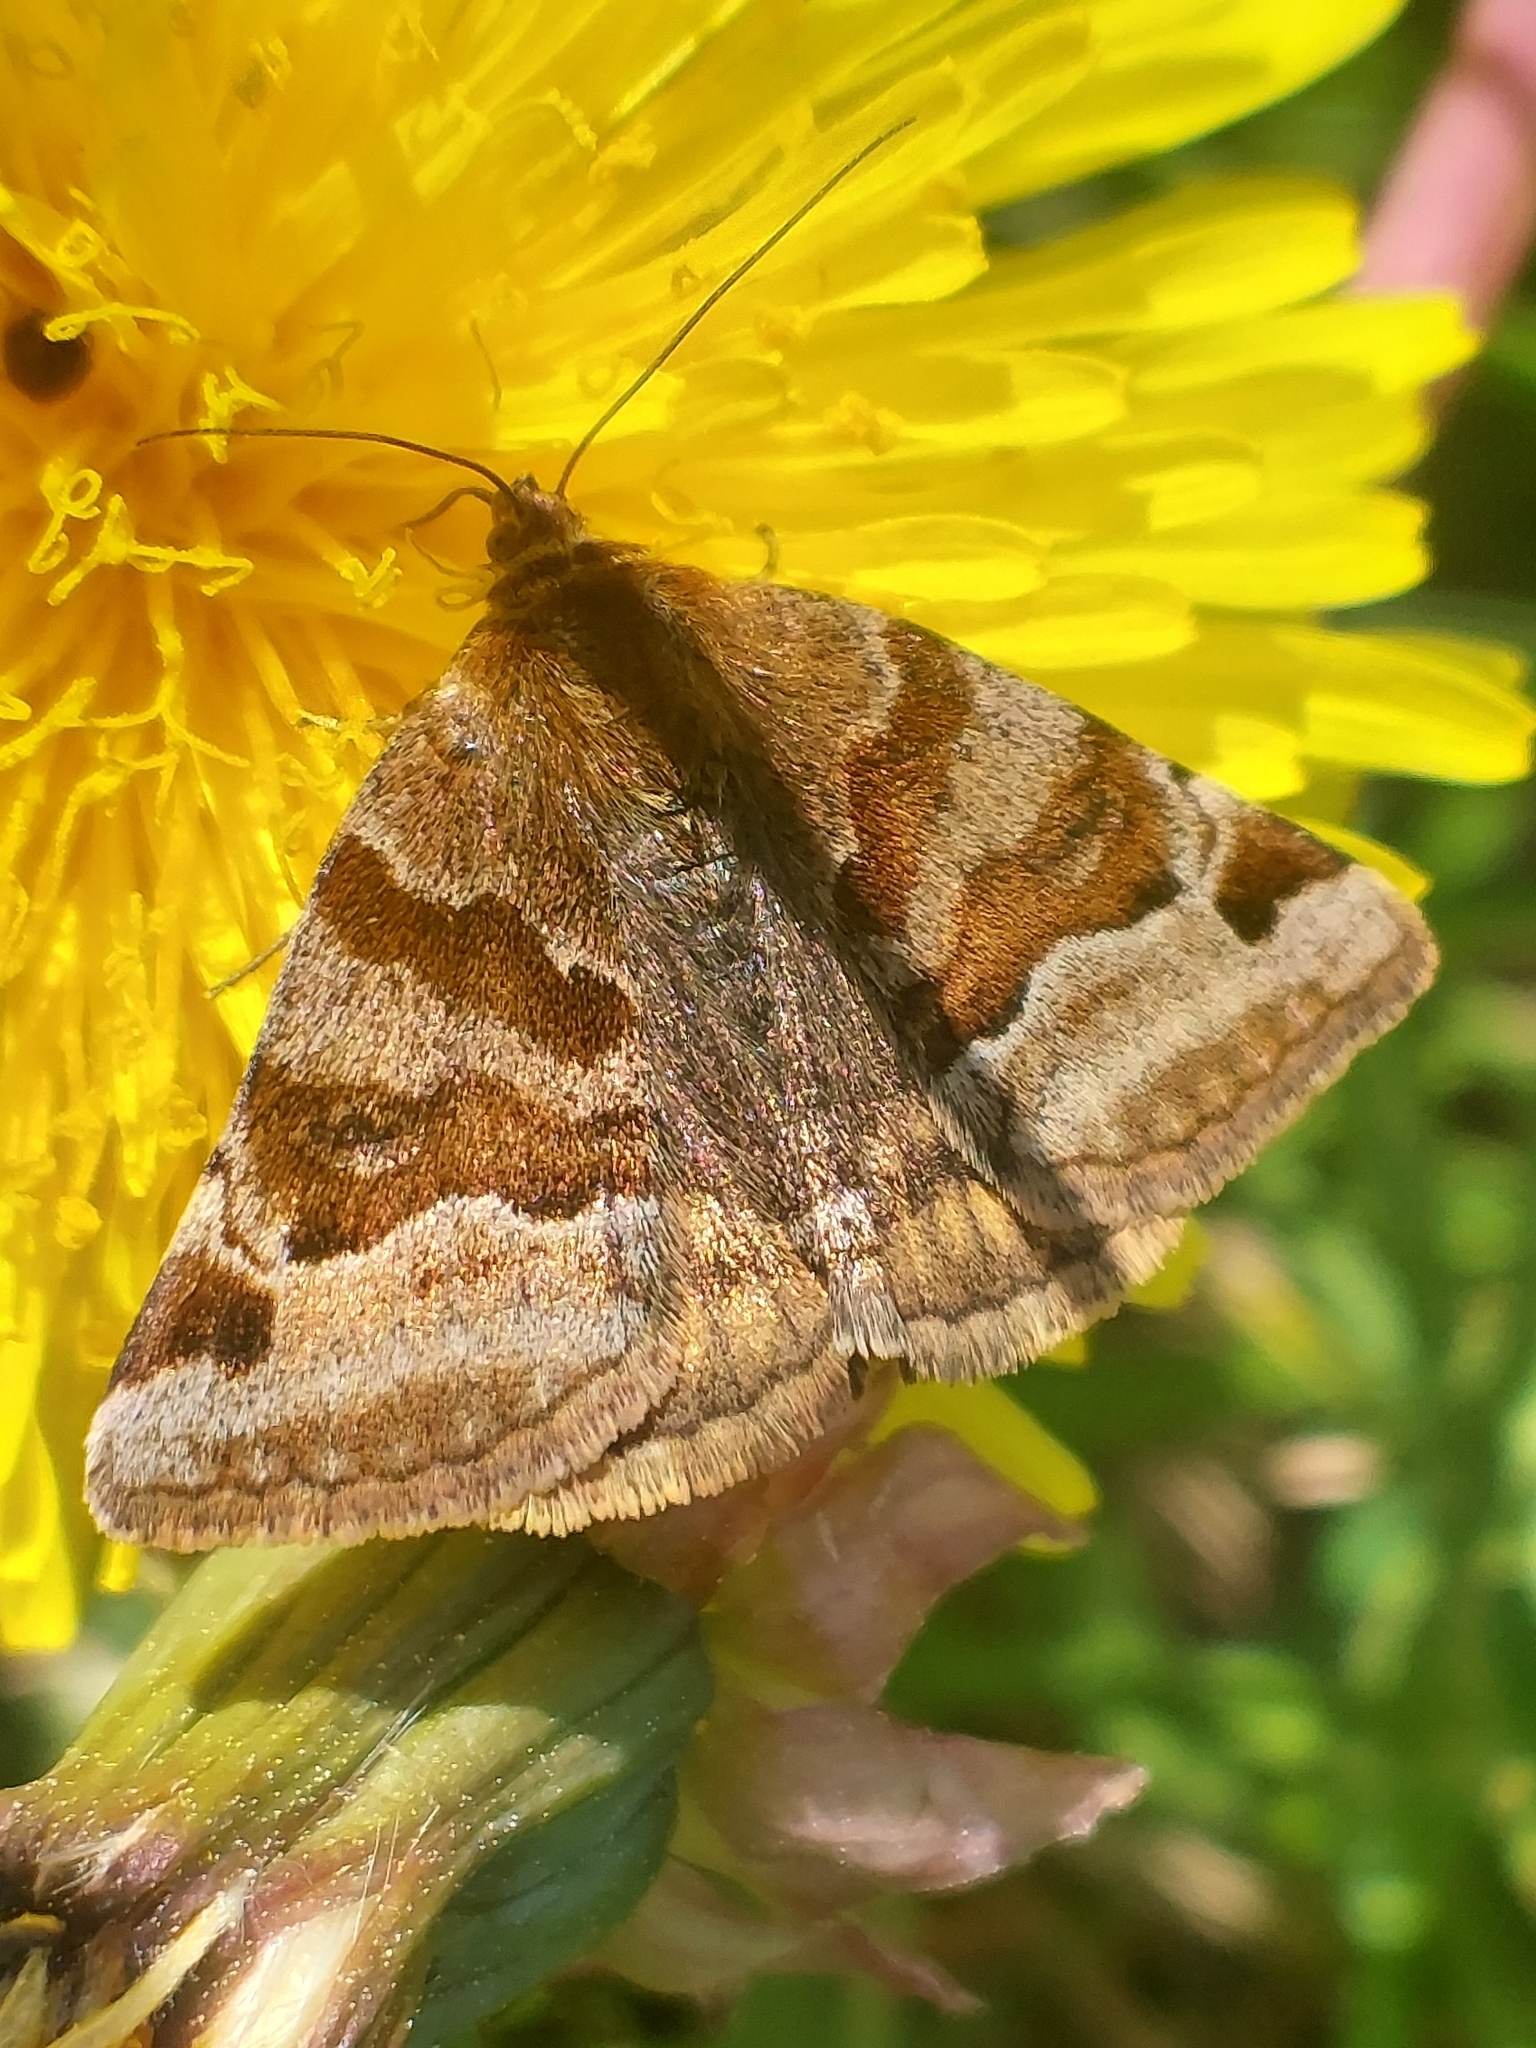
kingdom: Animalia
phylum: Arthropoda
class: Insecta
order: Lepidoptera
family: Erebidae
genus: Euclidia
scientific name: Euclidia glyphica
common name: Burnet companion
